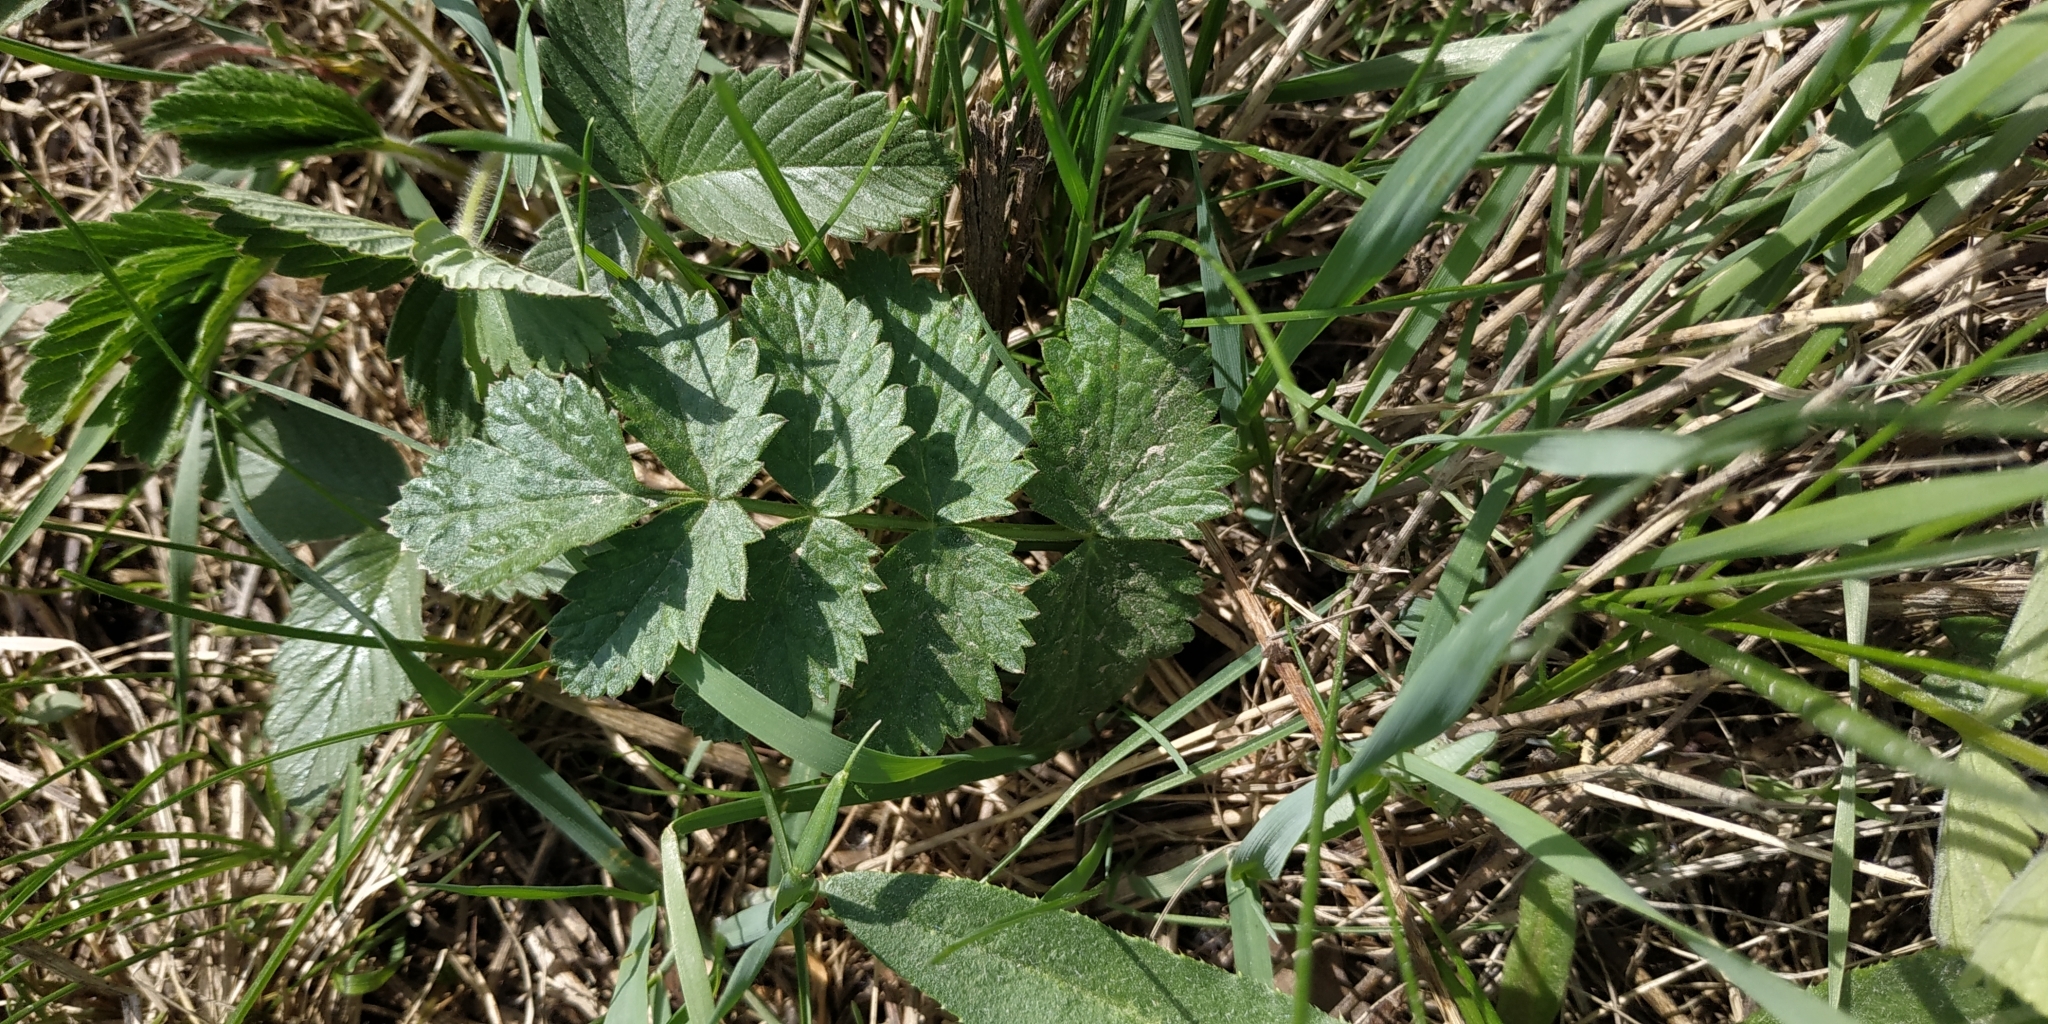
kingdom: Plantae
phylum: Tracheophyta
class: Magnoliopsida
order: Apiales
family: Apiaceae
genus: Pimpinella
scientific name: Pimpinella saxifraga
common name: Burnet-saxifrage
